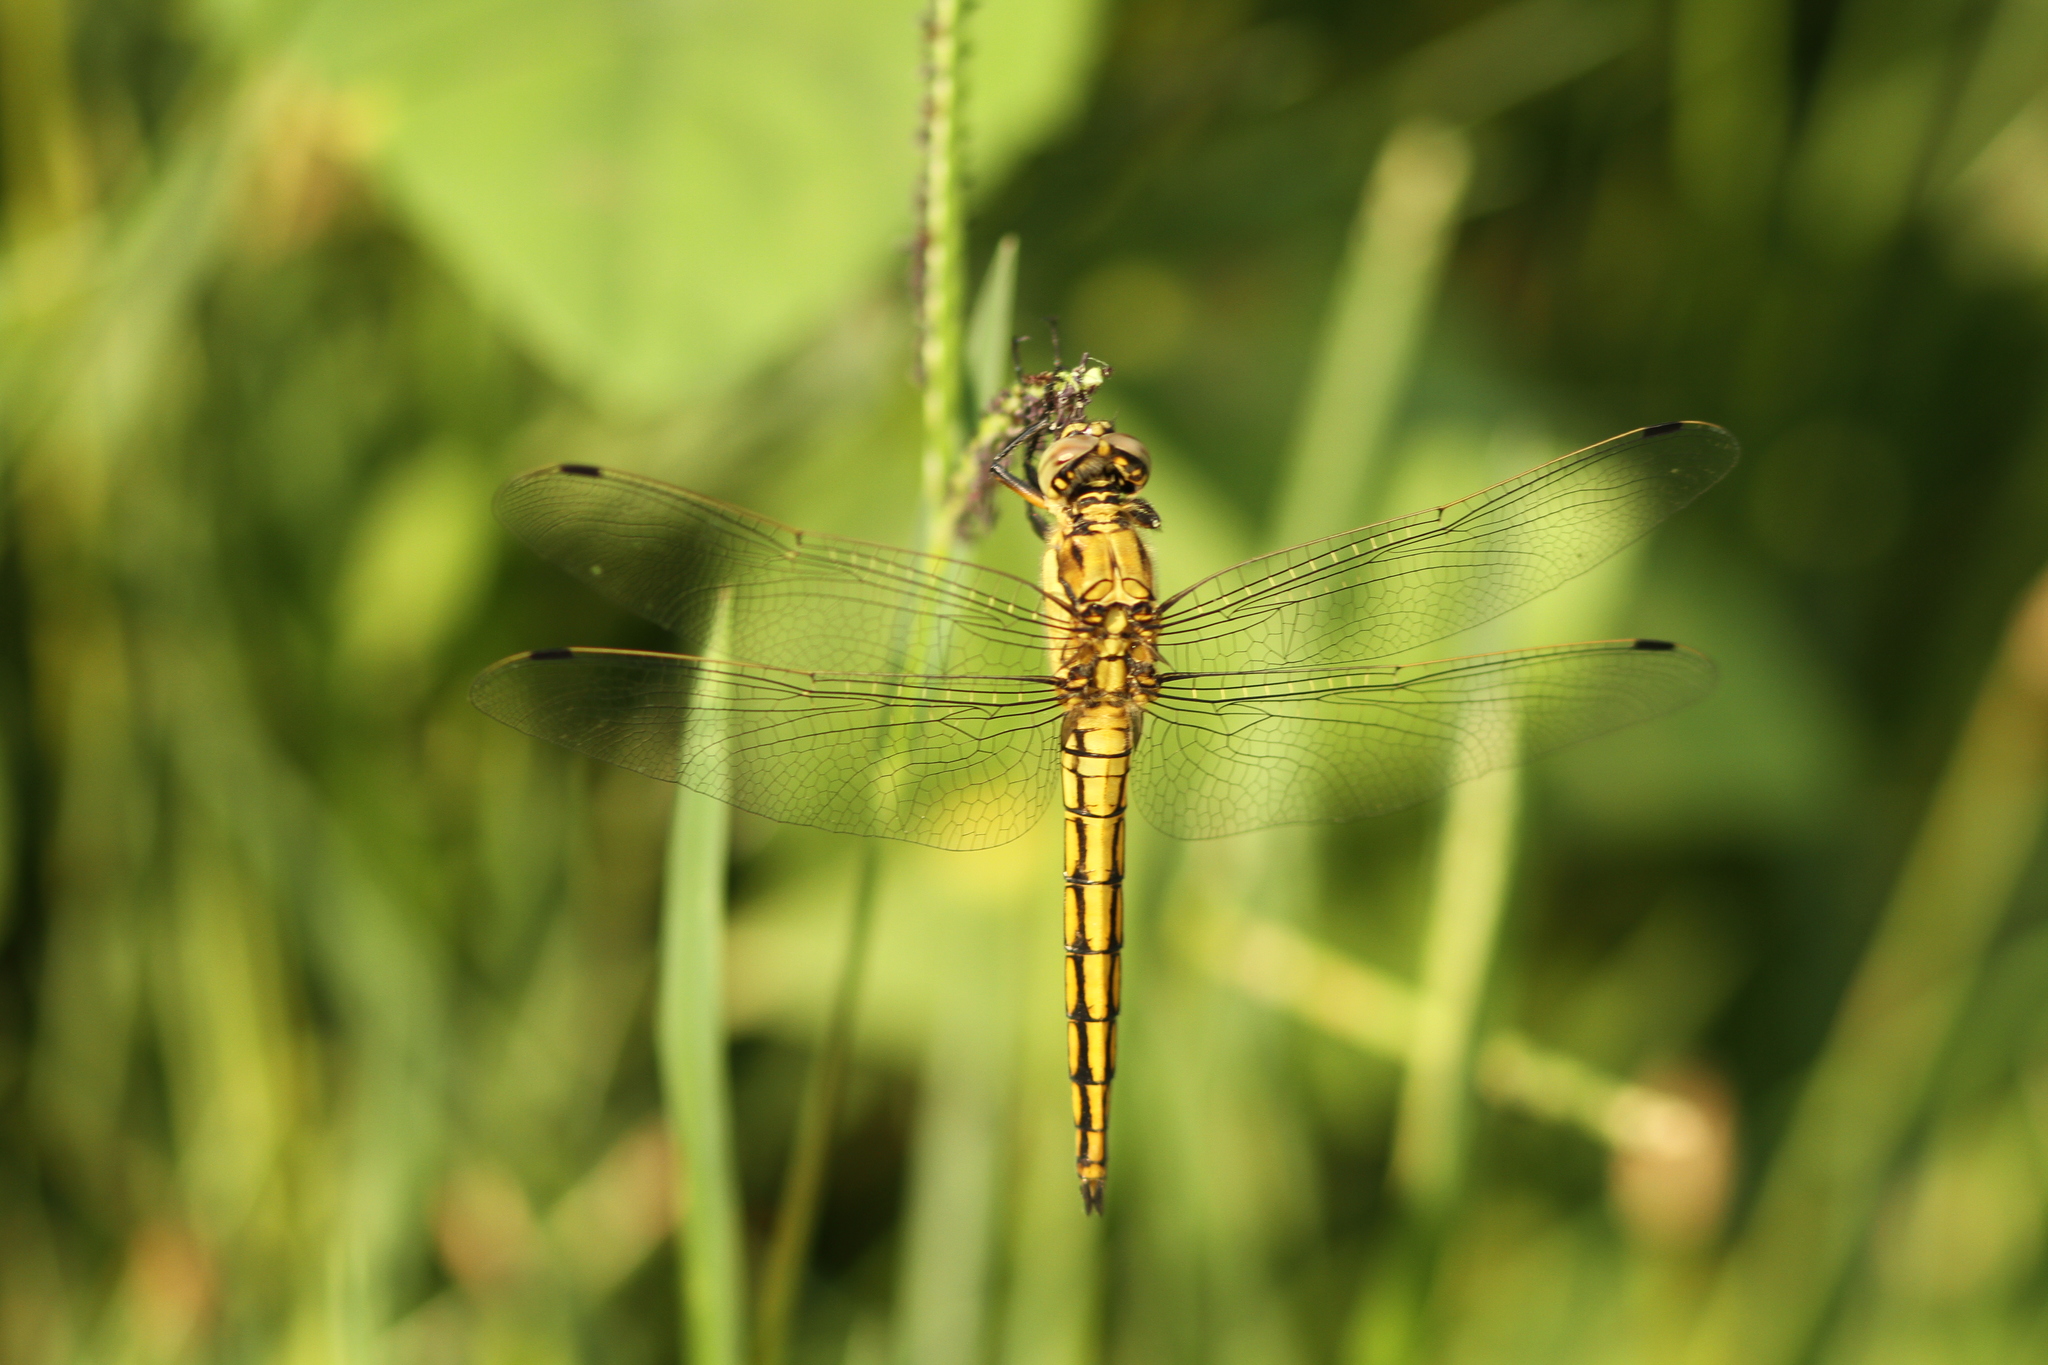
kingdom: Animalia
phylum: Arthropoda
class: Insecta
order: Odonata
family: Libellulidae
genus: Orthetrum
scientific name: Orthetrum cancellatum
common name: Black-tailed skimmer
